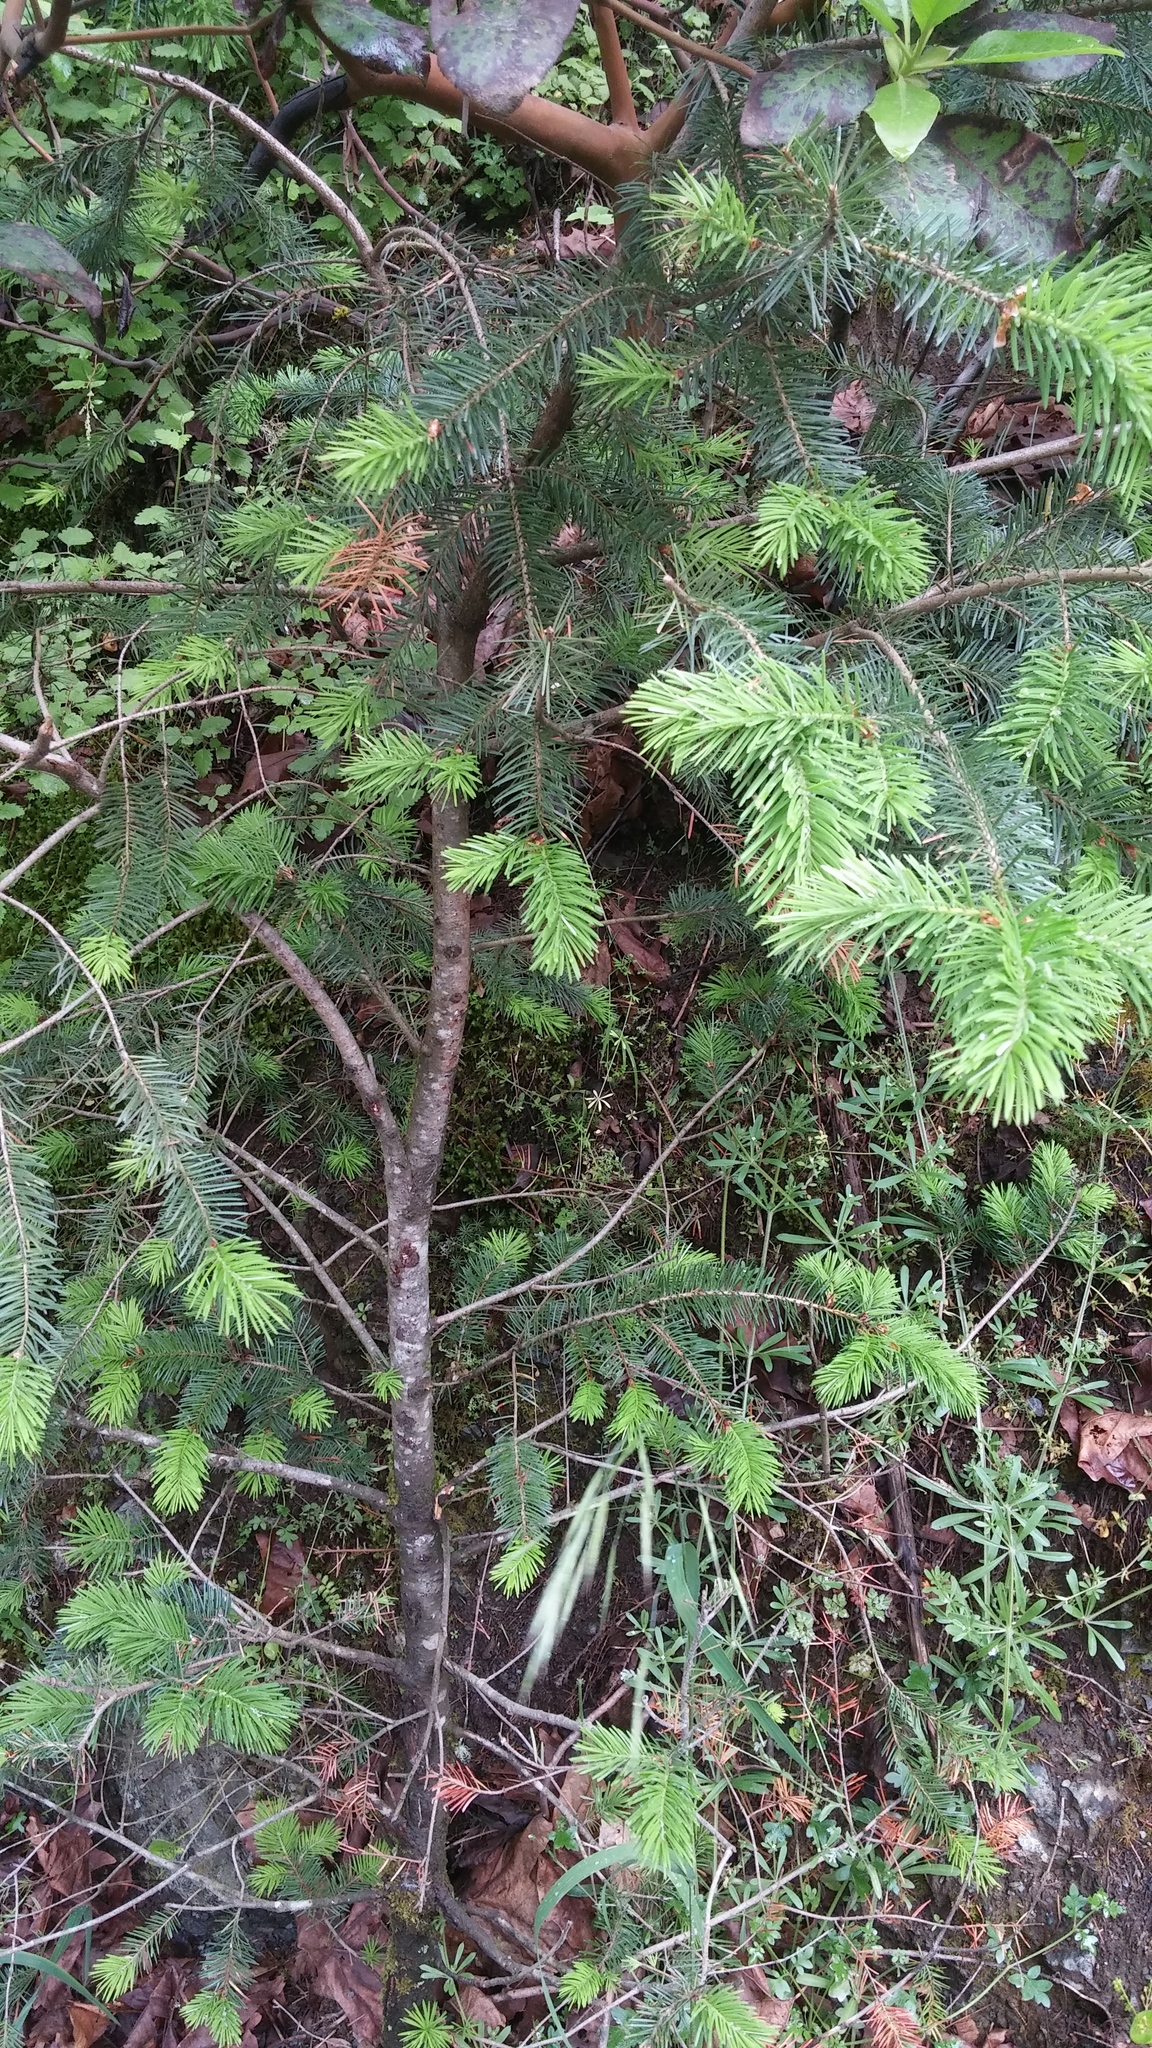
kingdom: Plantae
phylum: Tracheophyta
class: Pinopsida
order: Pinales
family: Pinaceae
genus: Pseudotsuga
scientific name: Pseudotsuga menziesii
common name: Douglas fir
